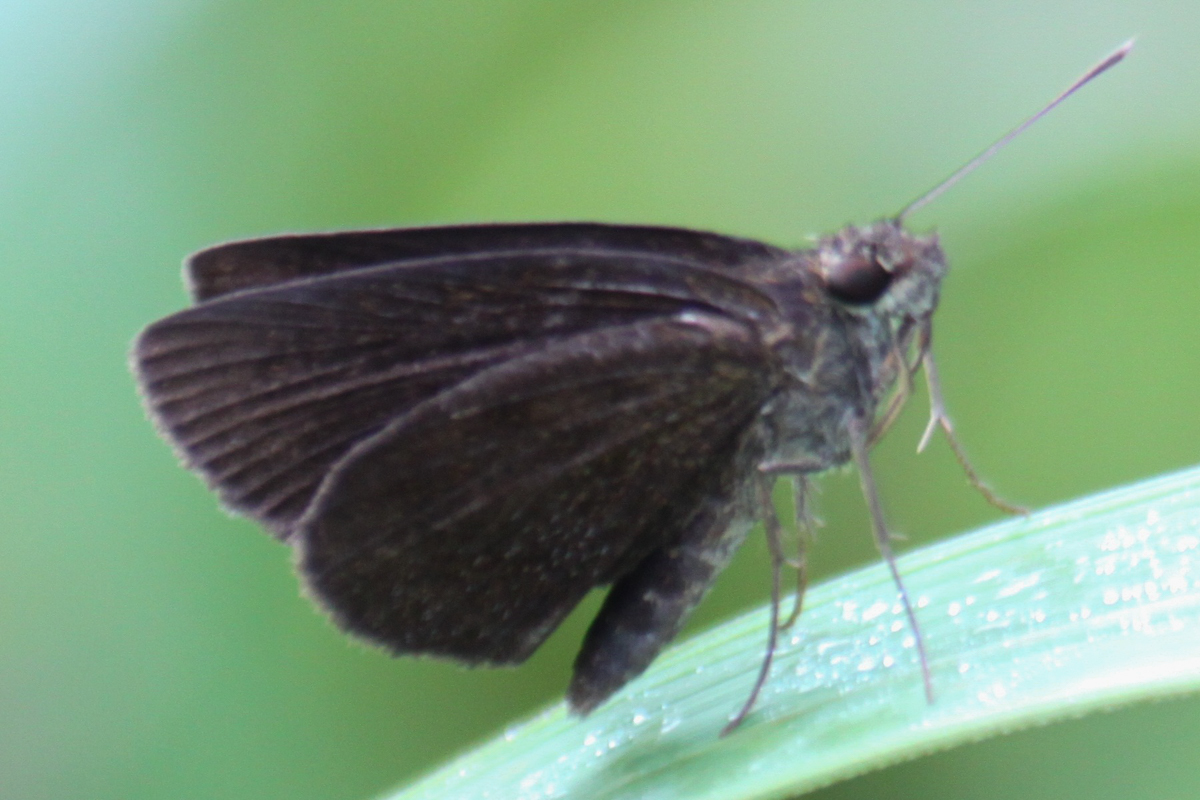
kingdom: Animalia
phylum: Arthropoda
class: Insecta
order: Lepidoptera
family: Hesperiidae
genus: Astictopterus
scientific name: Astictopterus jama
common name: Forest hopper
